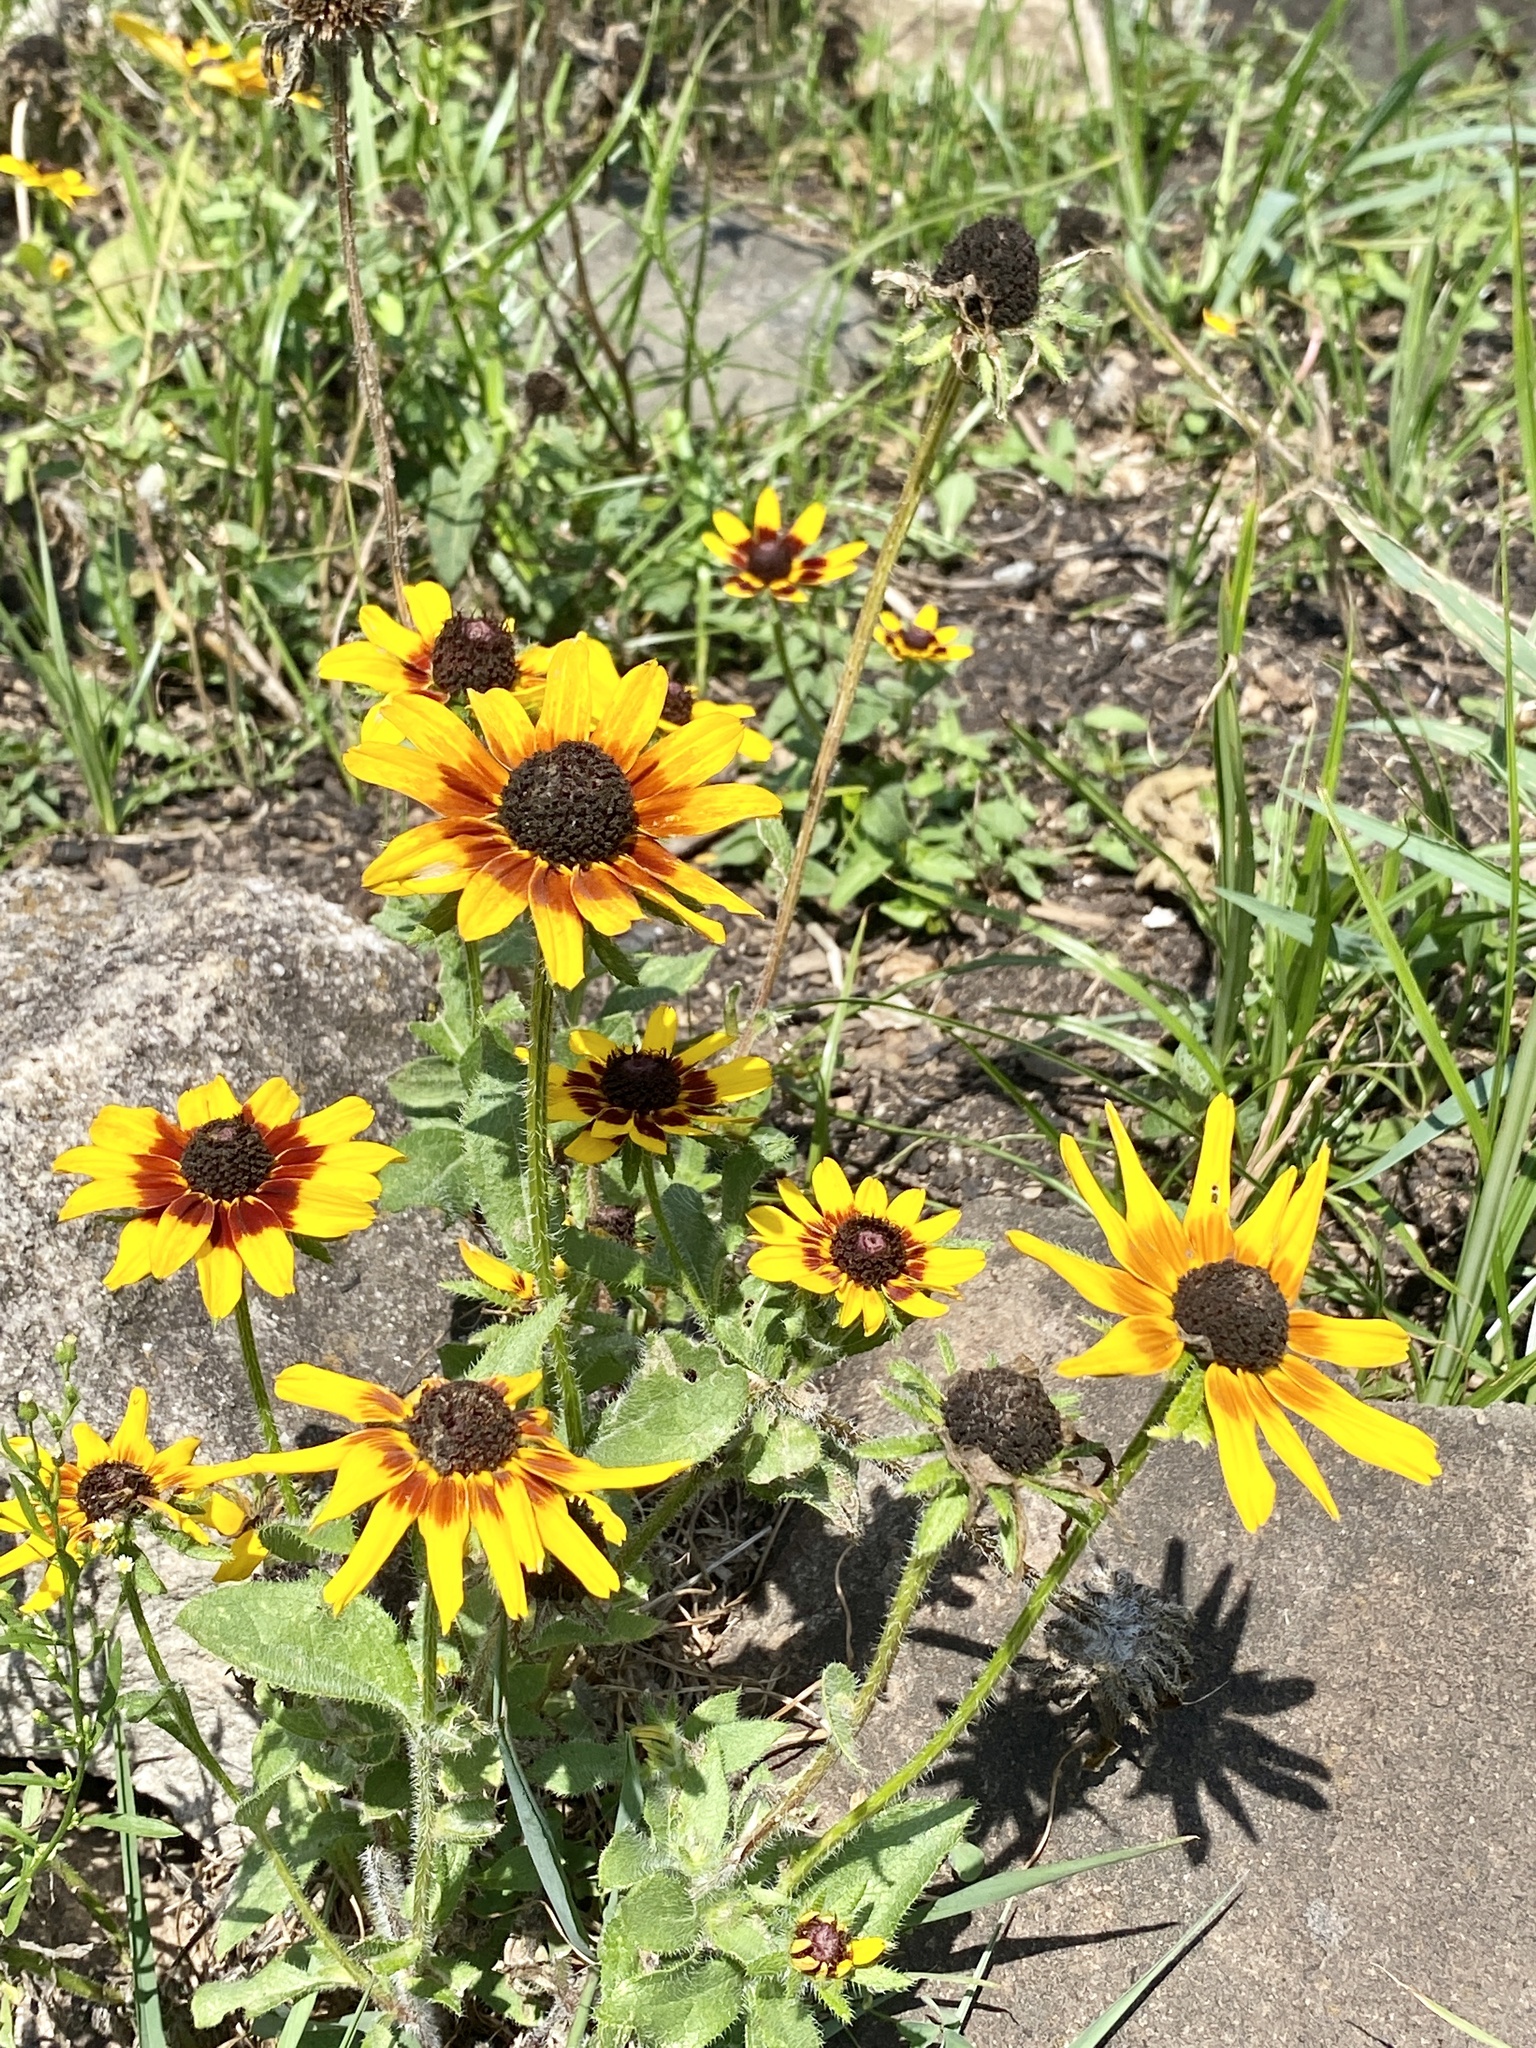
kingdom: Plantae
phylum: Tracheophyta
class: Magnoliopsida
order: Asterales
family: Asteraceae
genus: Rudbeckia
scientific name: Rudbeckia hirta
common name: Black-eyed-susan
